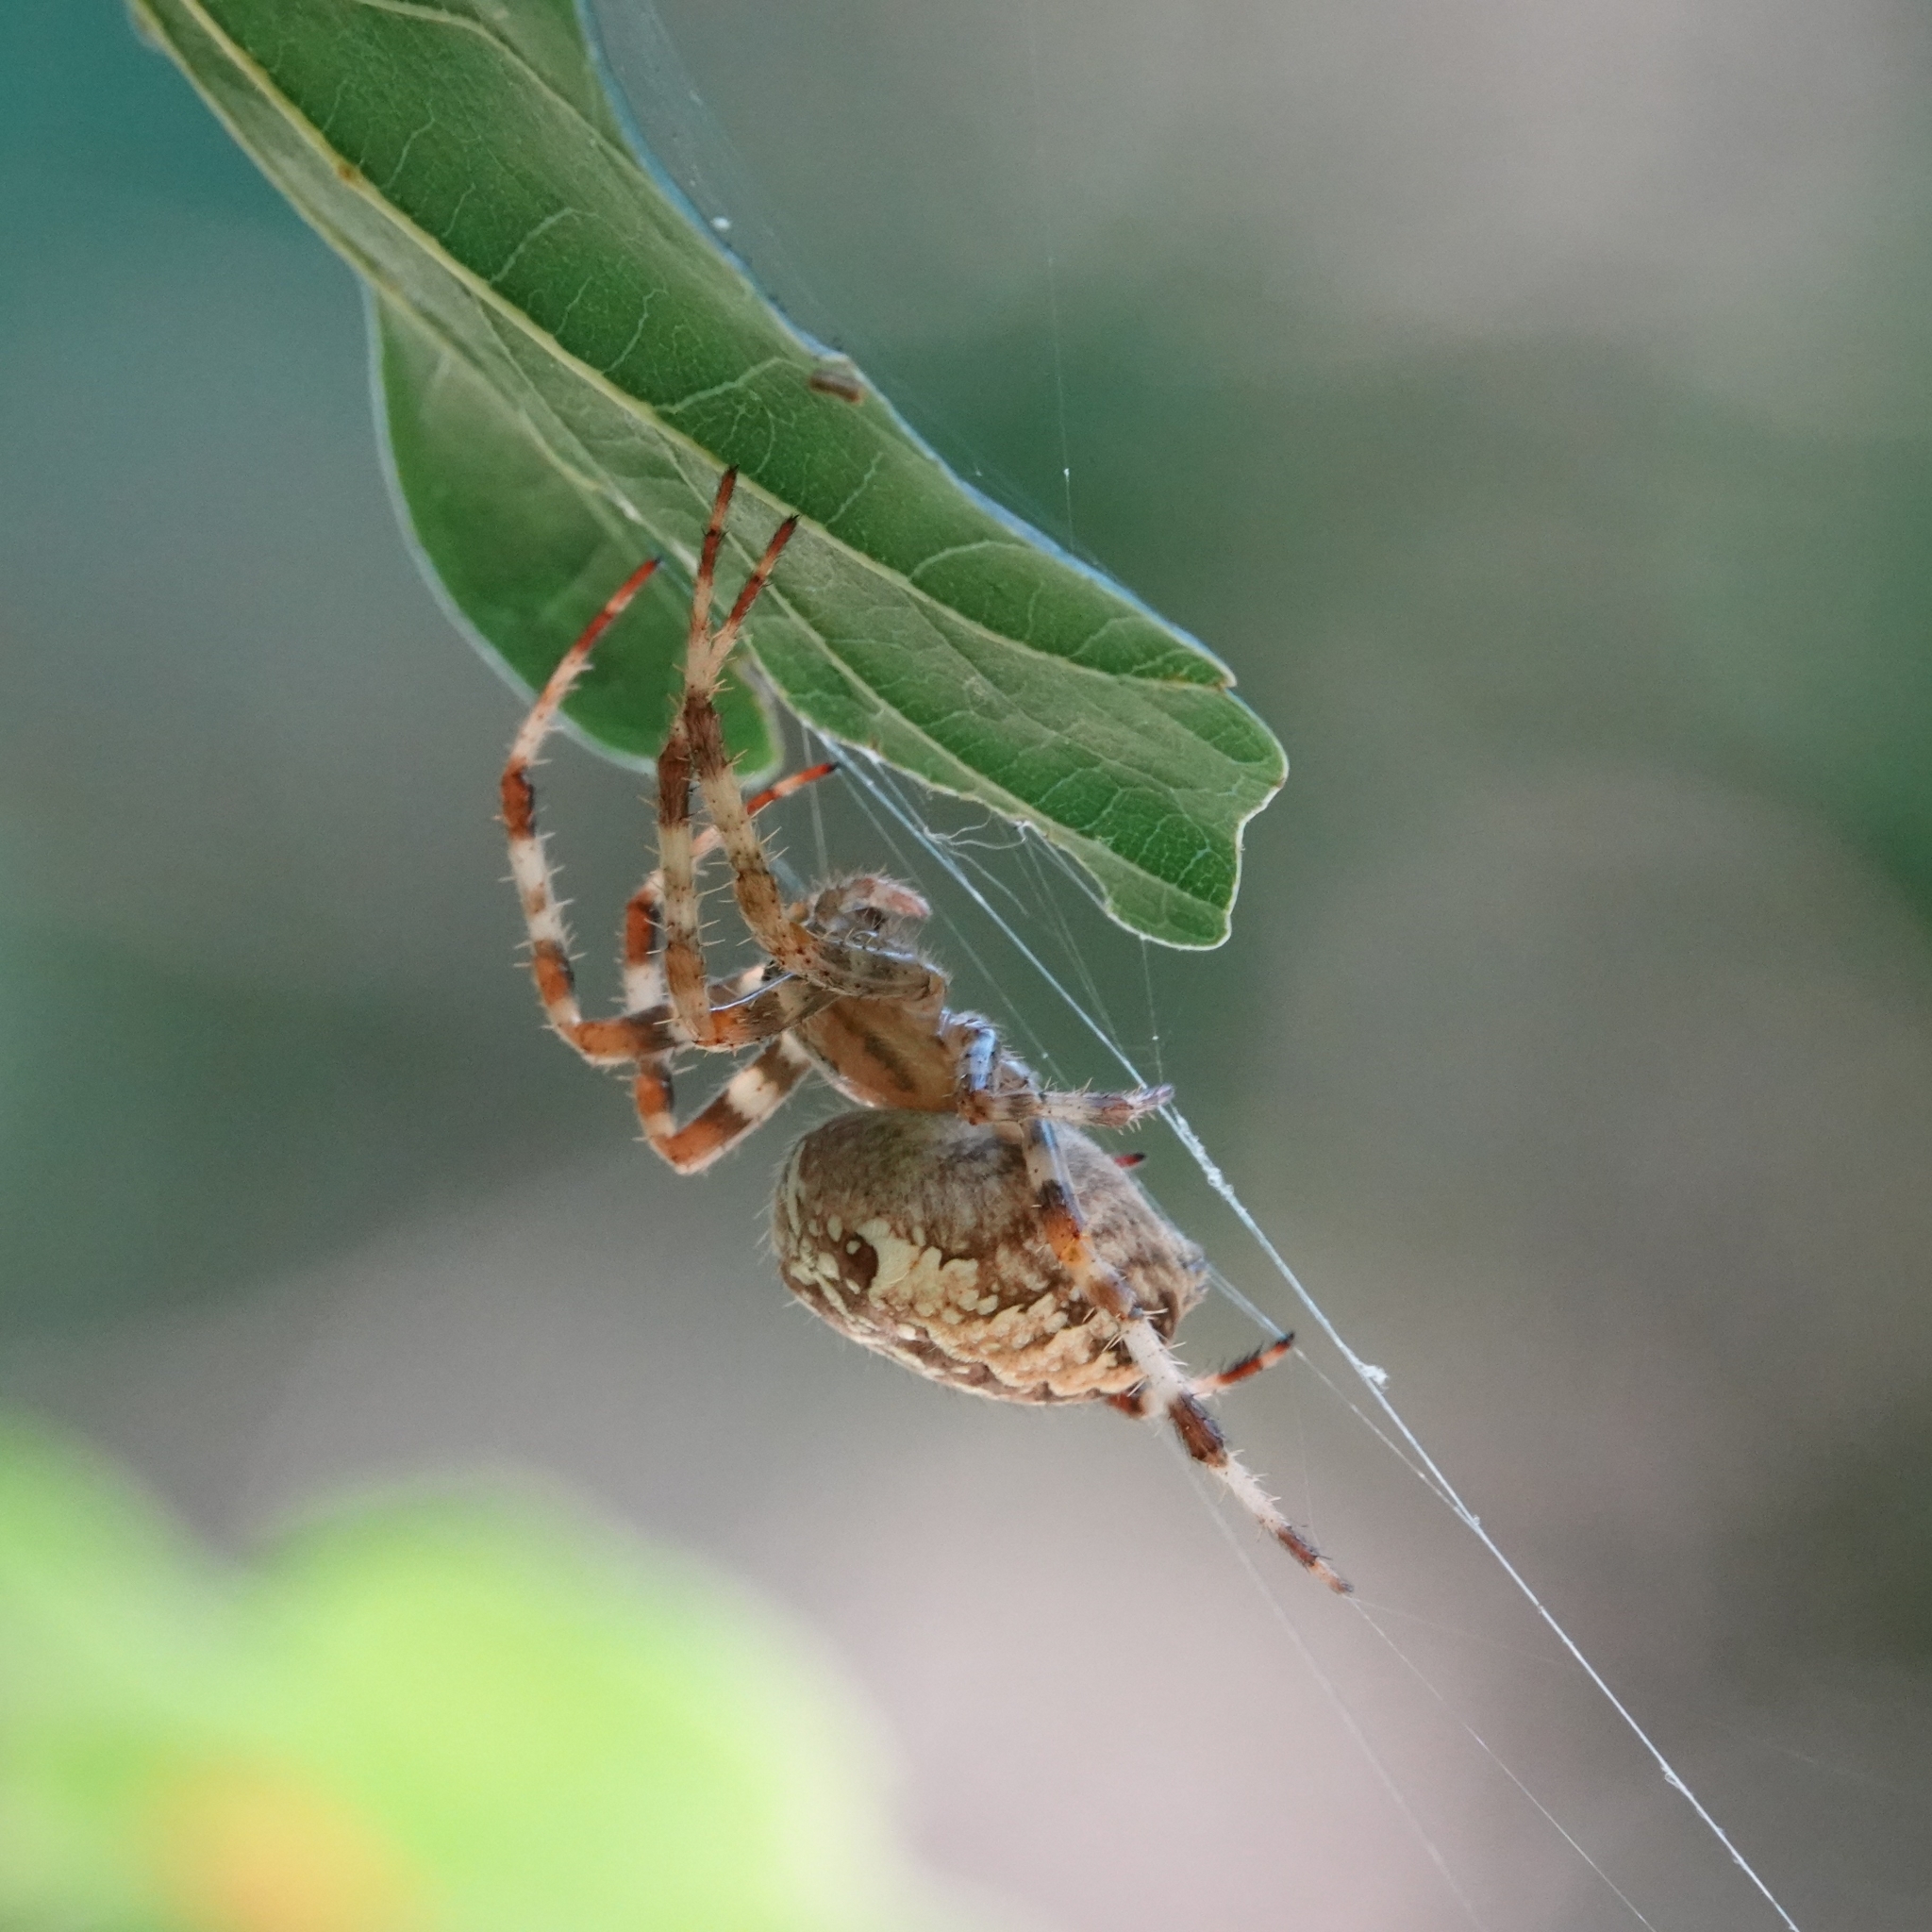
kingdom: Animalia
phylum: Arthropoda
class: Arachnida
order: Araneae
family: Araneidae
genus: Araneus
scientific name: Araneus diadematus
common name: Cross orbweaver
